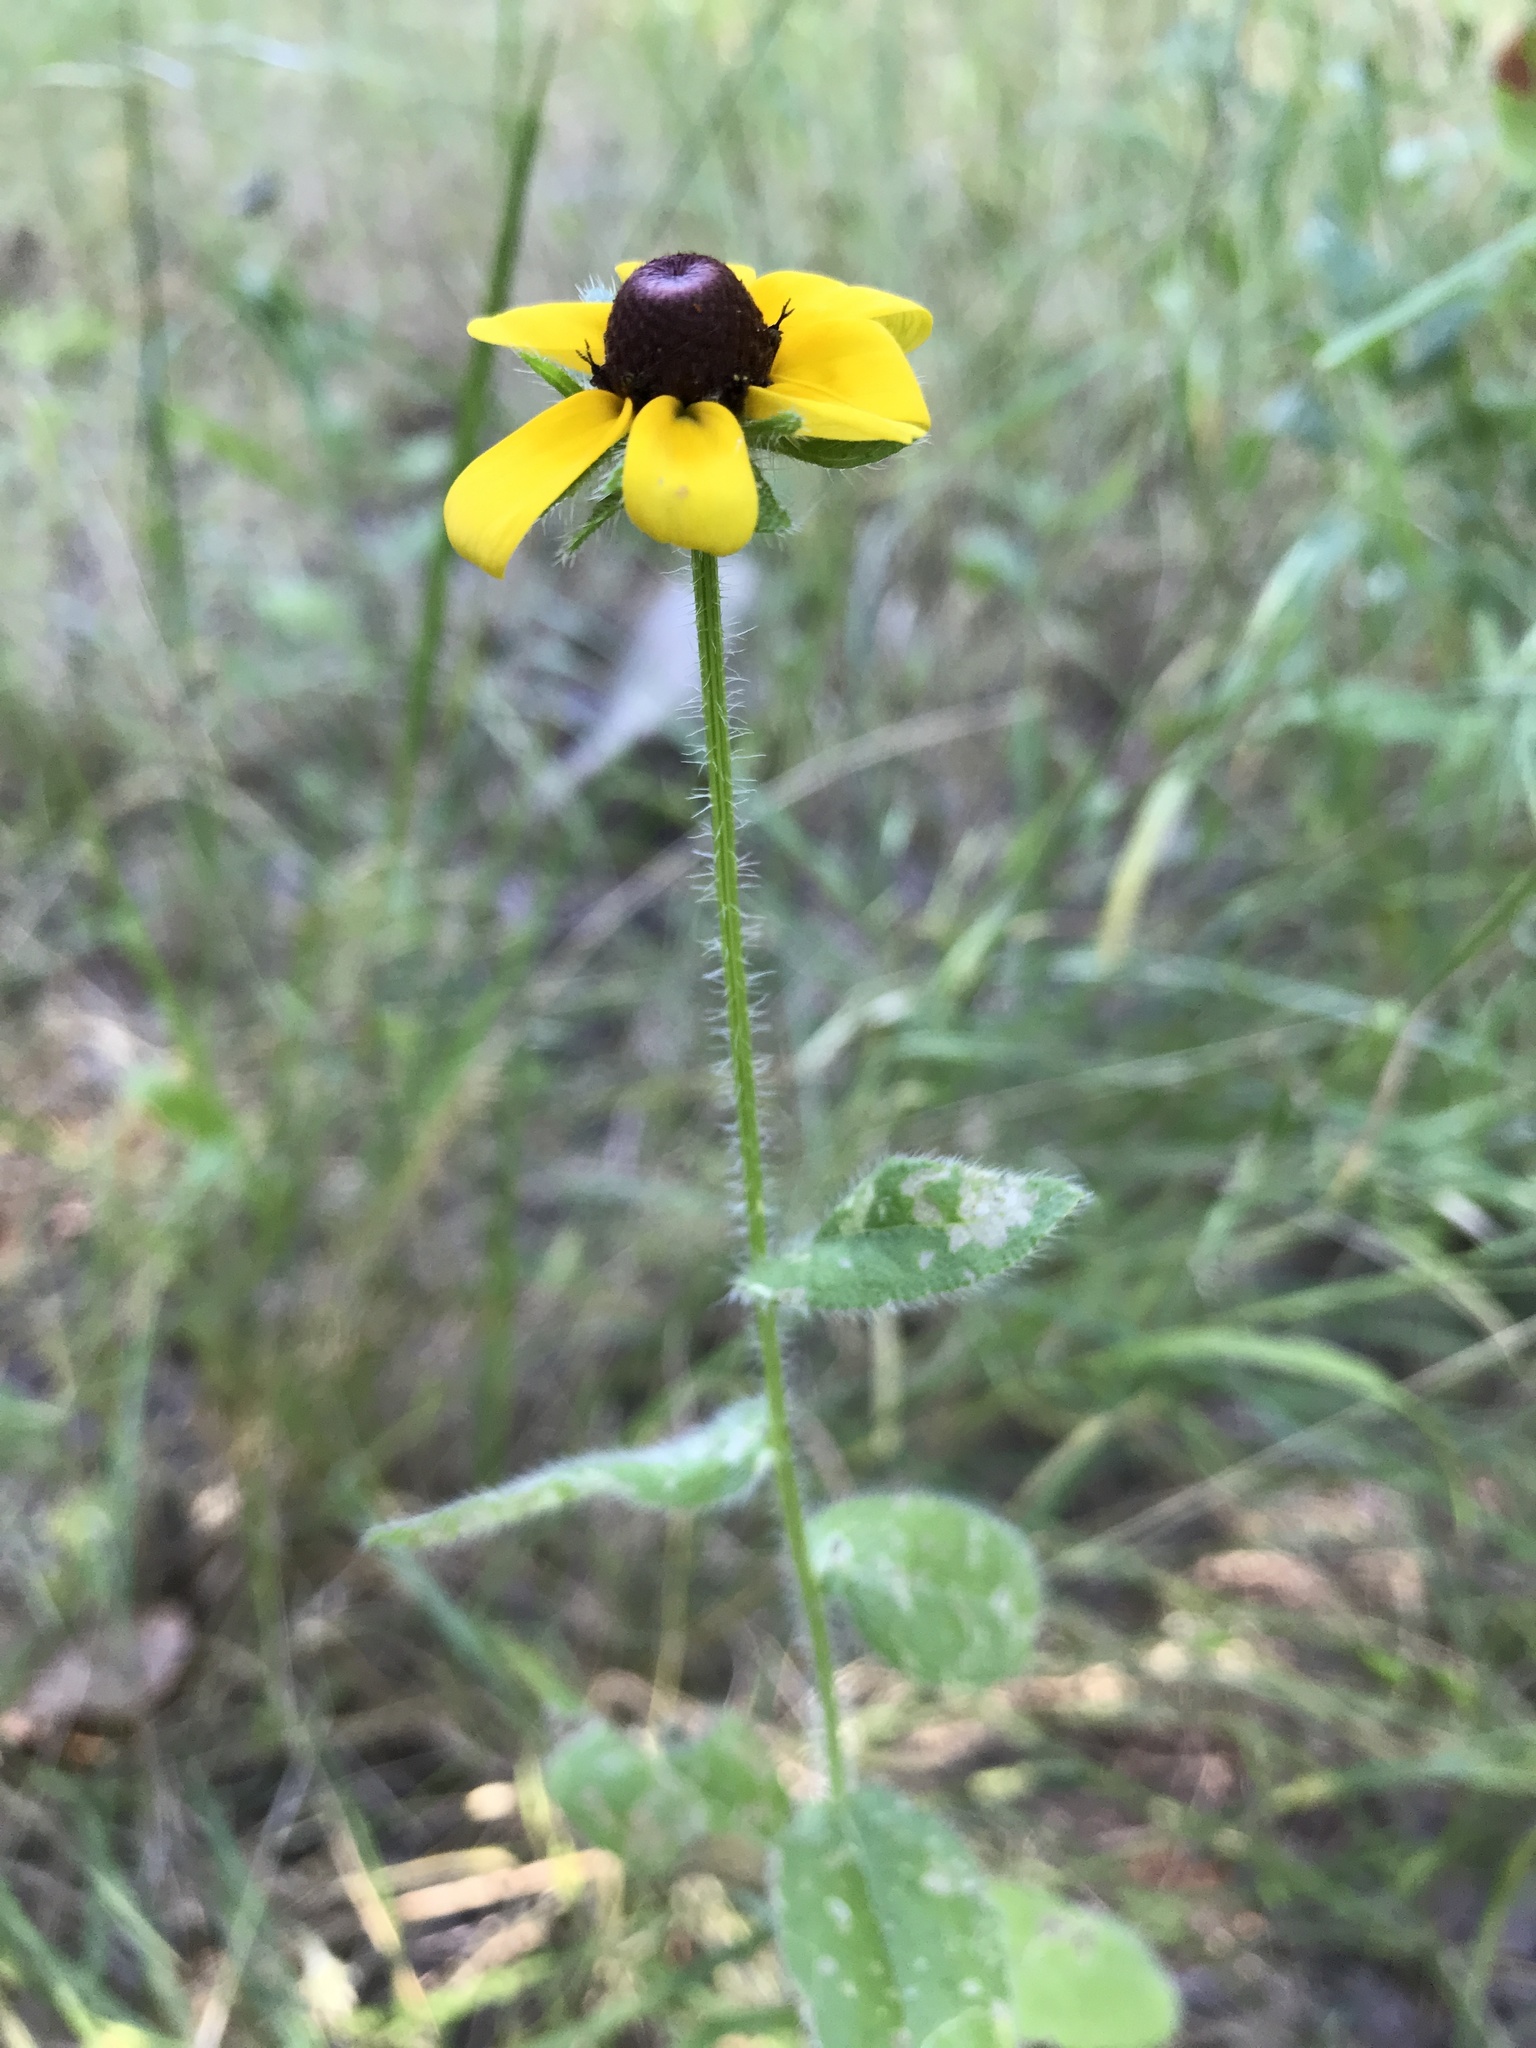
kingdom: Plantae
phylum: Tracheophyta
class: Magnoliopsida
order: Asterales
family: Asteraceae
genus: Rudbeckia
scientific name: Rudbeckia hirta
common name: Black-eyed-susan
